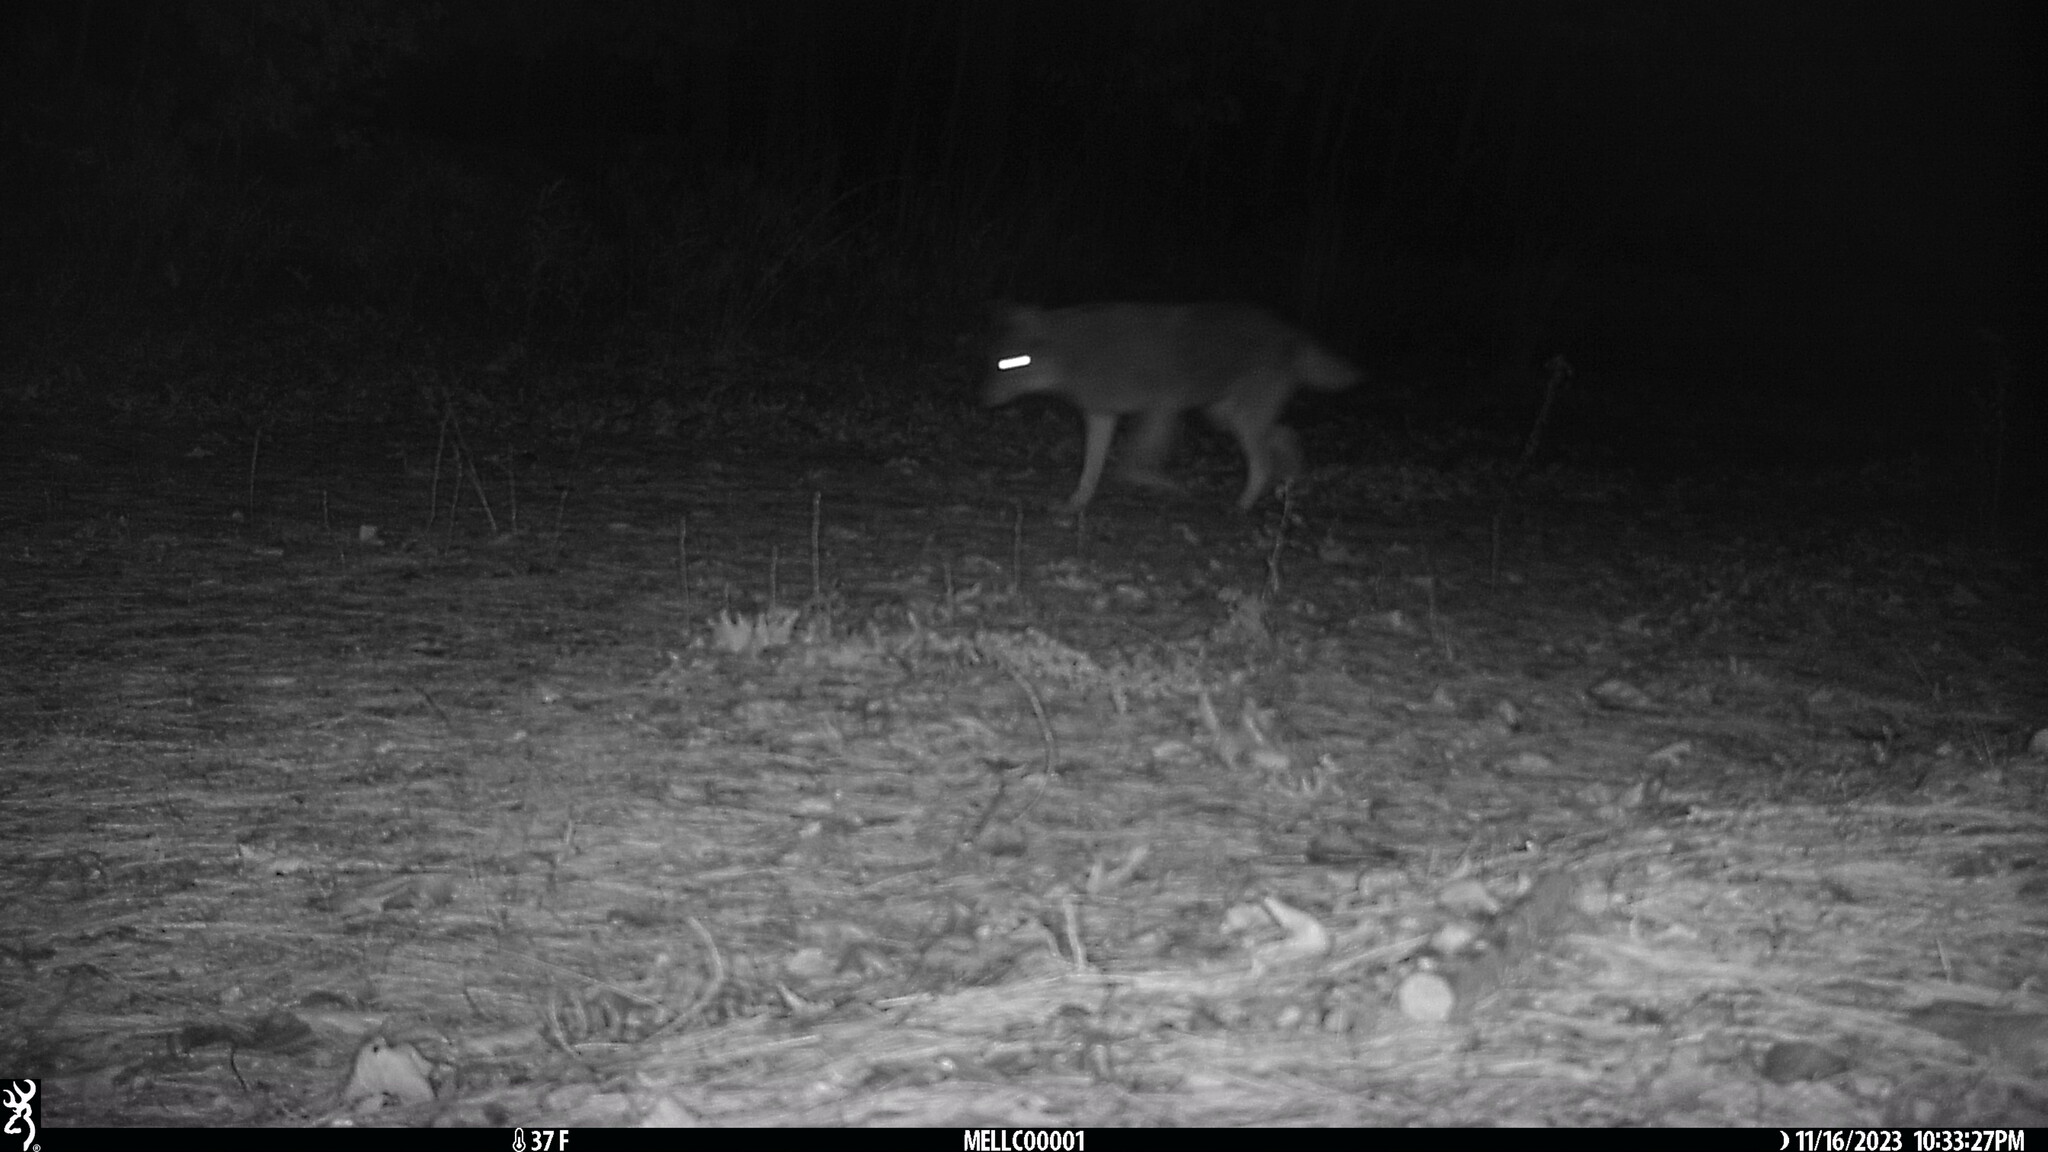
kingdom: Animalia
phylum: Chordata
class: Mammalia
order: Carnivora
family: Canidae
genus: Canis
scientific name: Canis latrans
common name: Coyote
